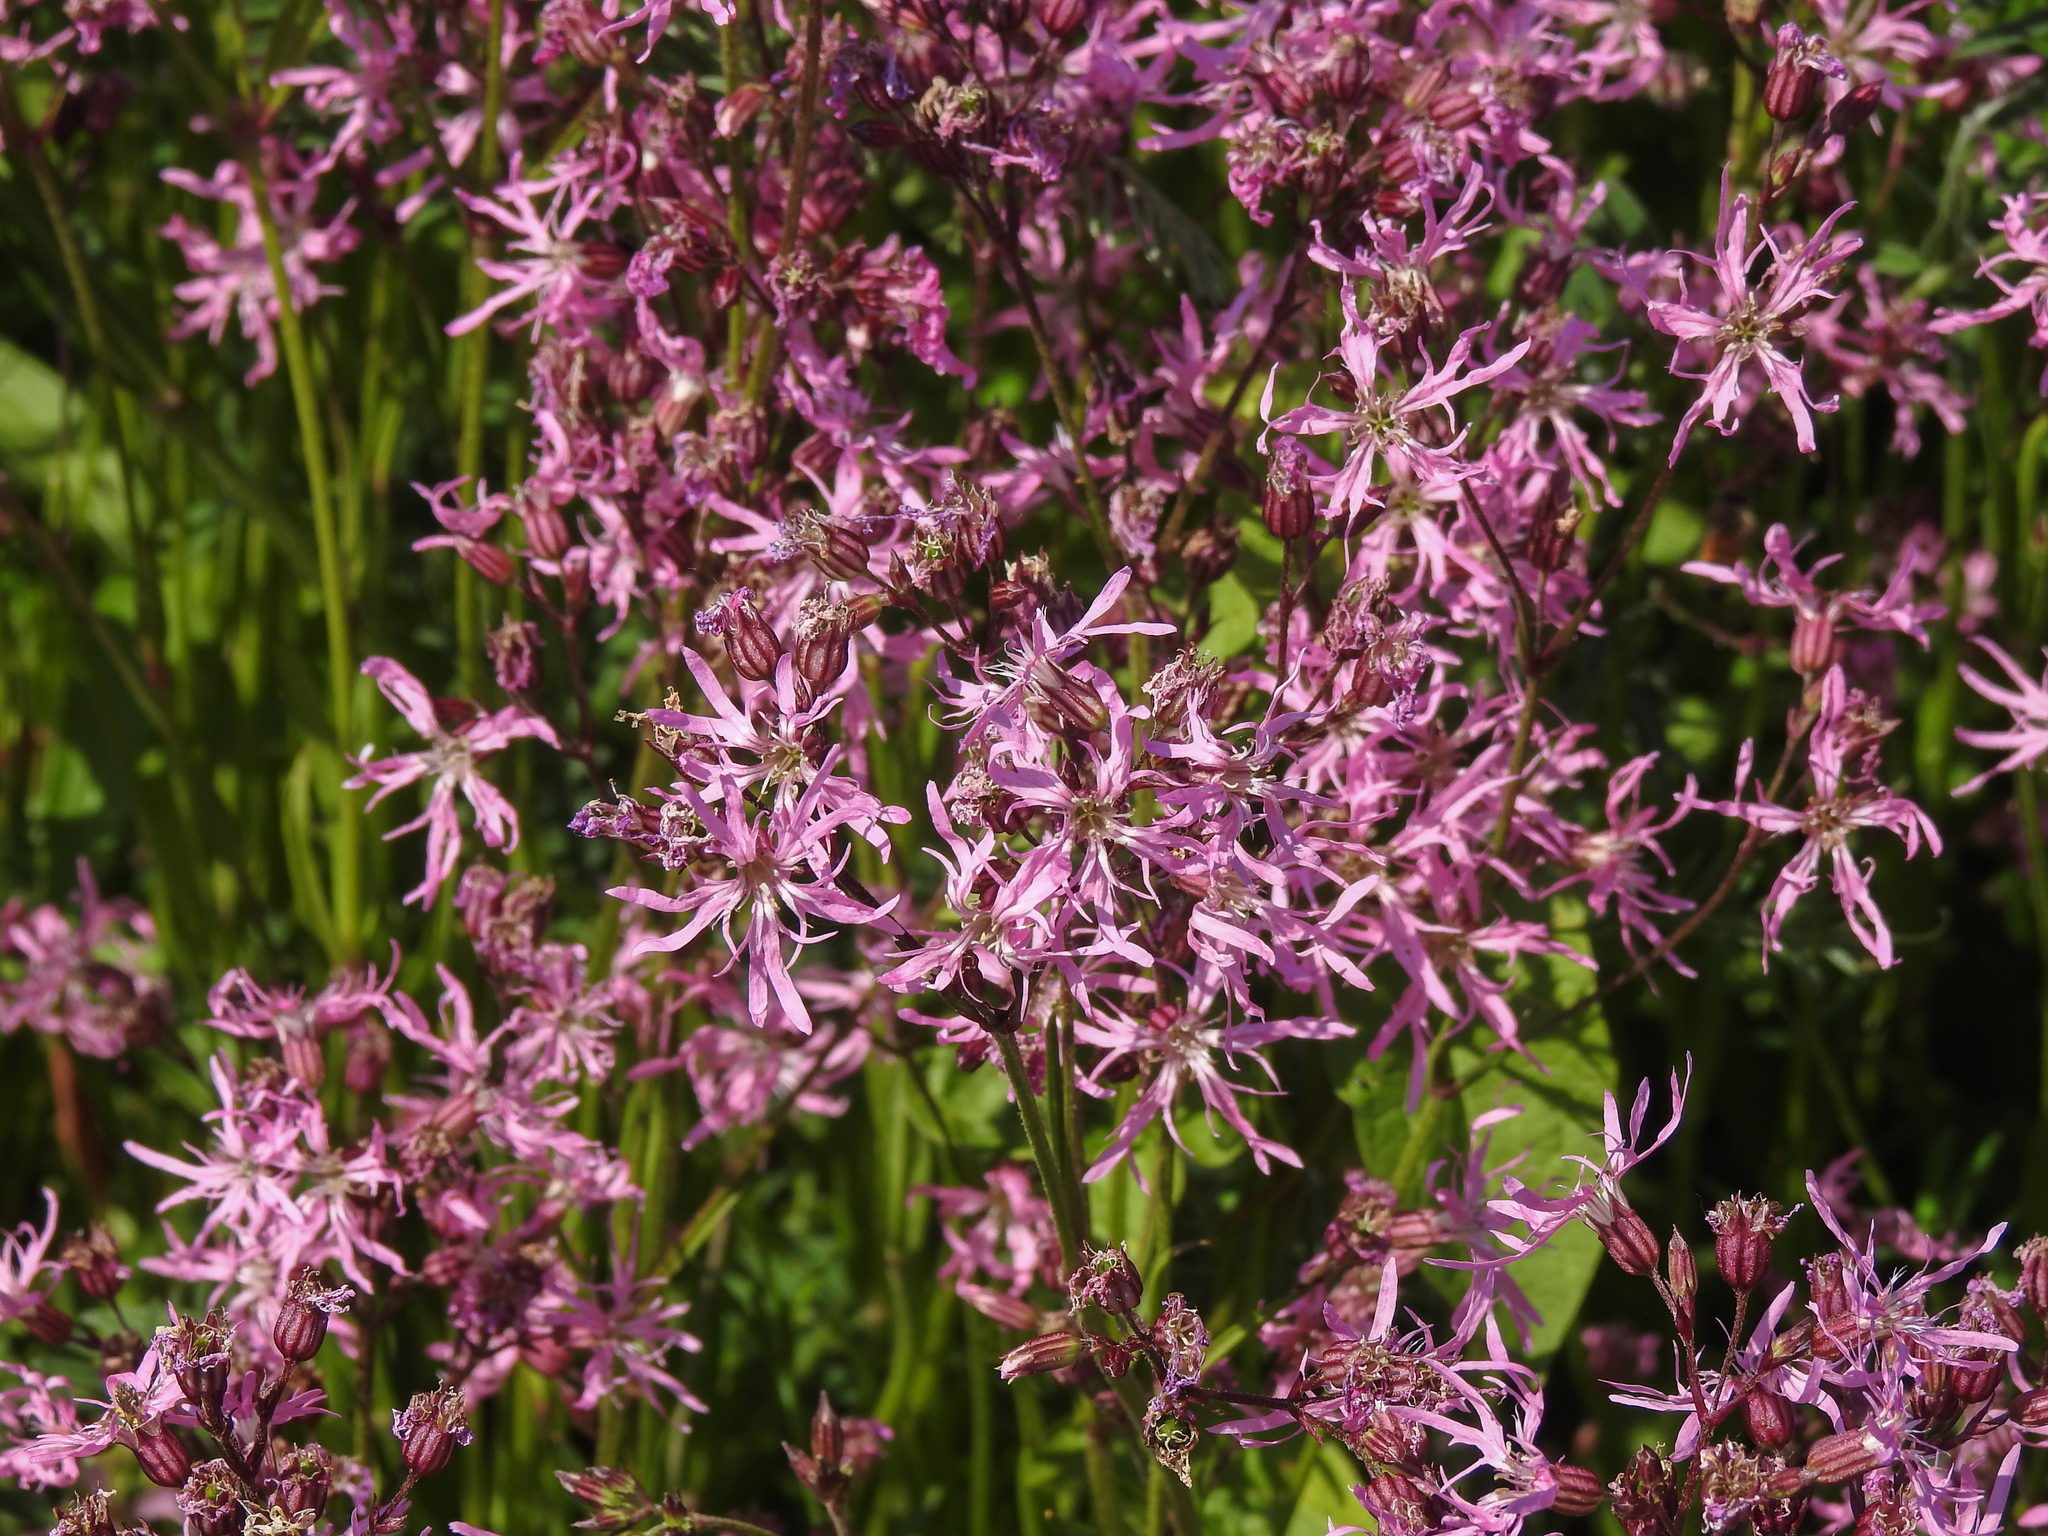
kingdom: Plantae
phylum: Tracheophyta
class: Magnoliopsida
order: Caryophyllales
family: Caryophyllaceae
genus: Silene
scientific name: Silene flos-cuculi
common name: Ragged-robin
